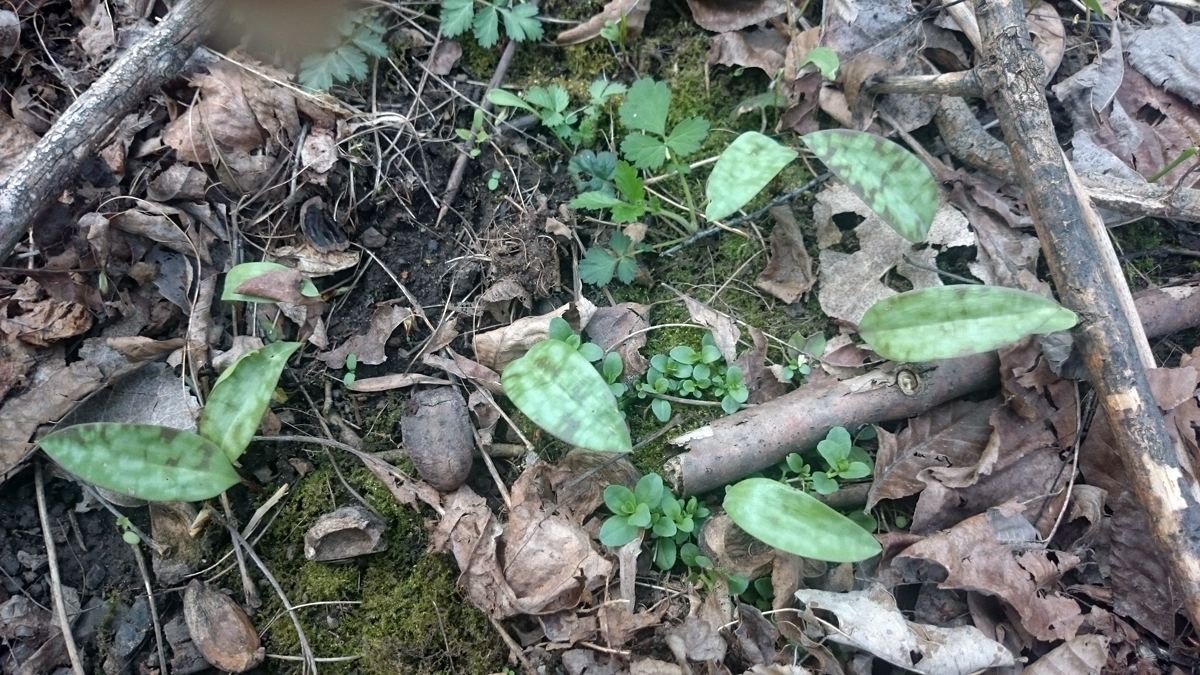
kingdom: Plantae
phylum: Tracheophyta
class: Liliopsida
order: Liliales
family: Liliaceae
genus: Erythronium
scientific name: Erythronium americanum
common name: Yellow adder's-tongue
